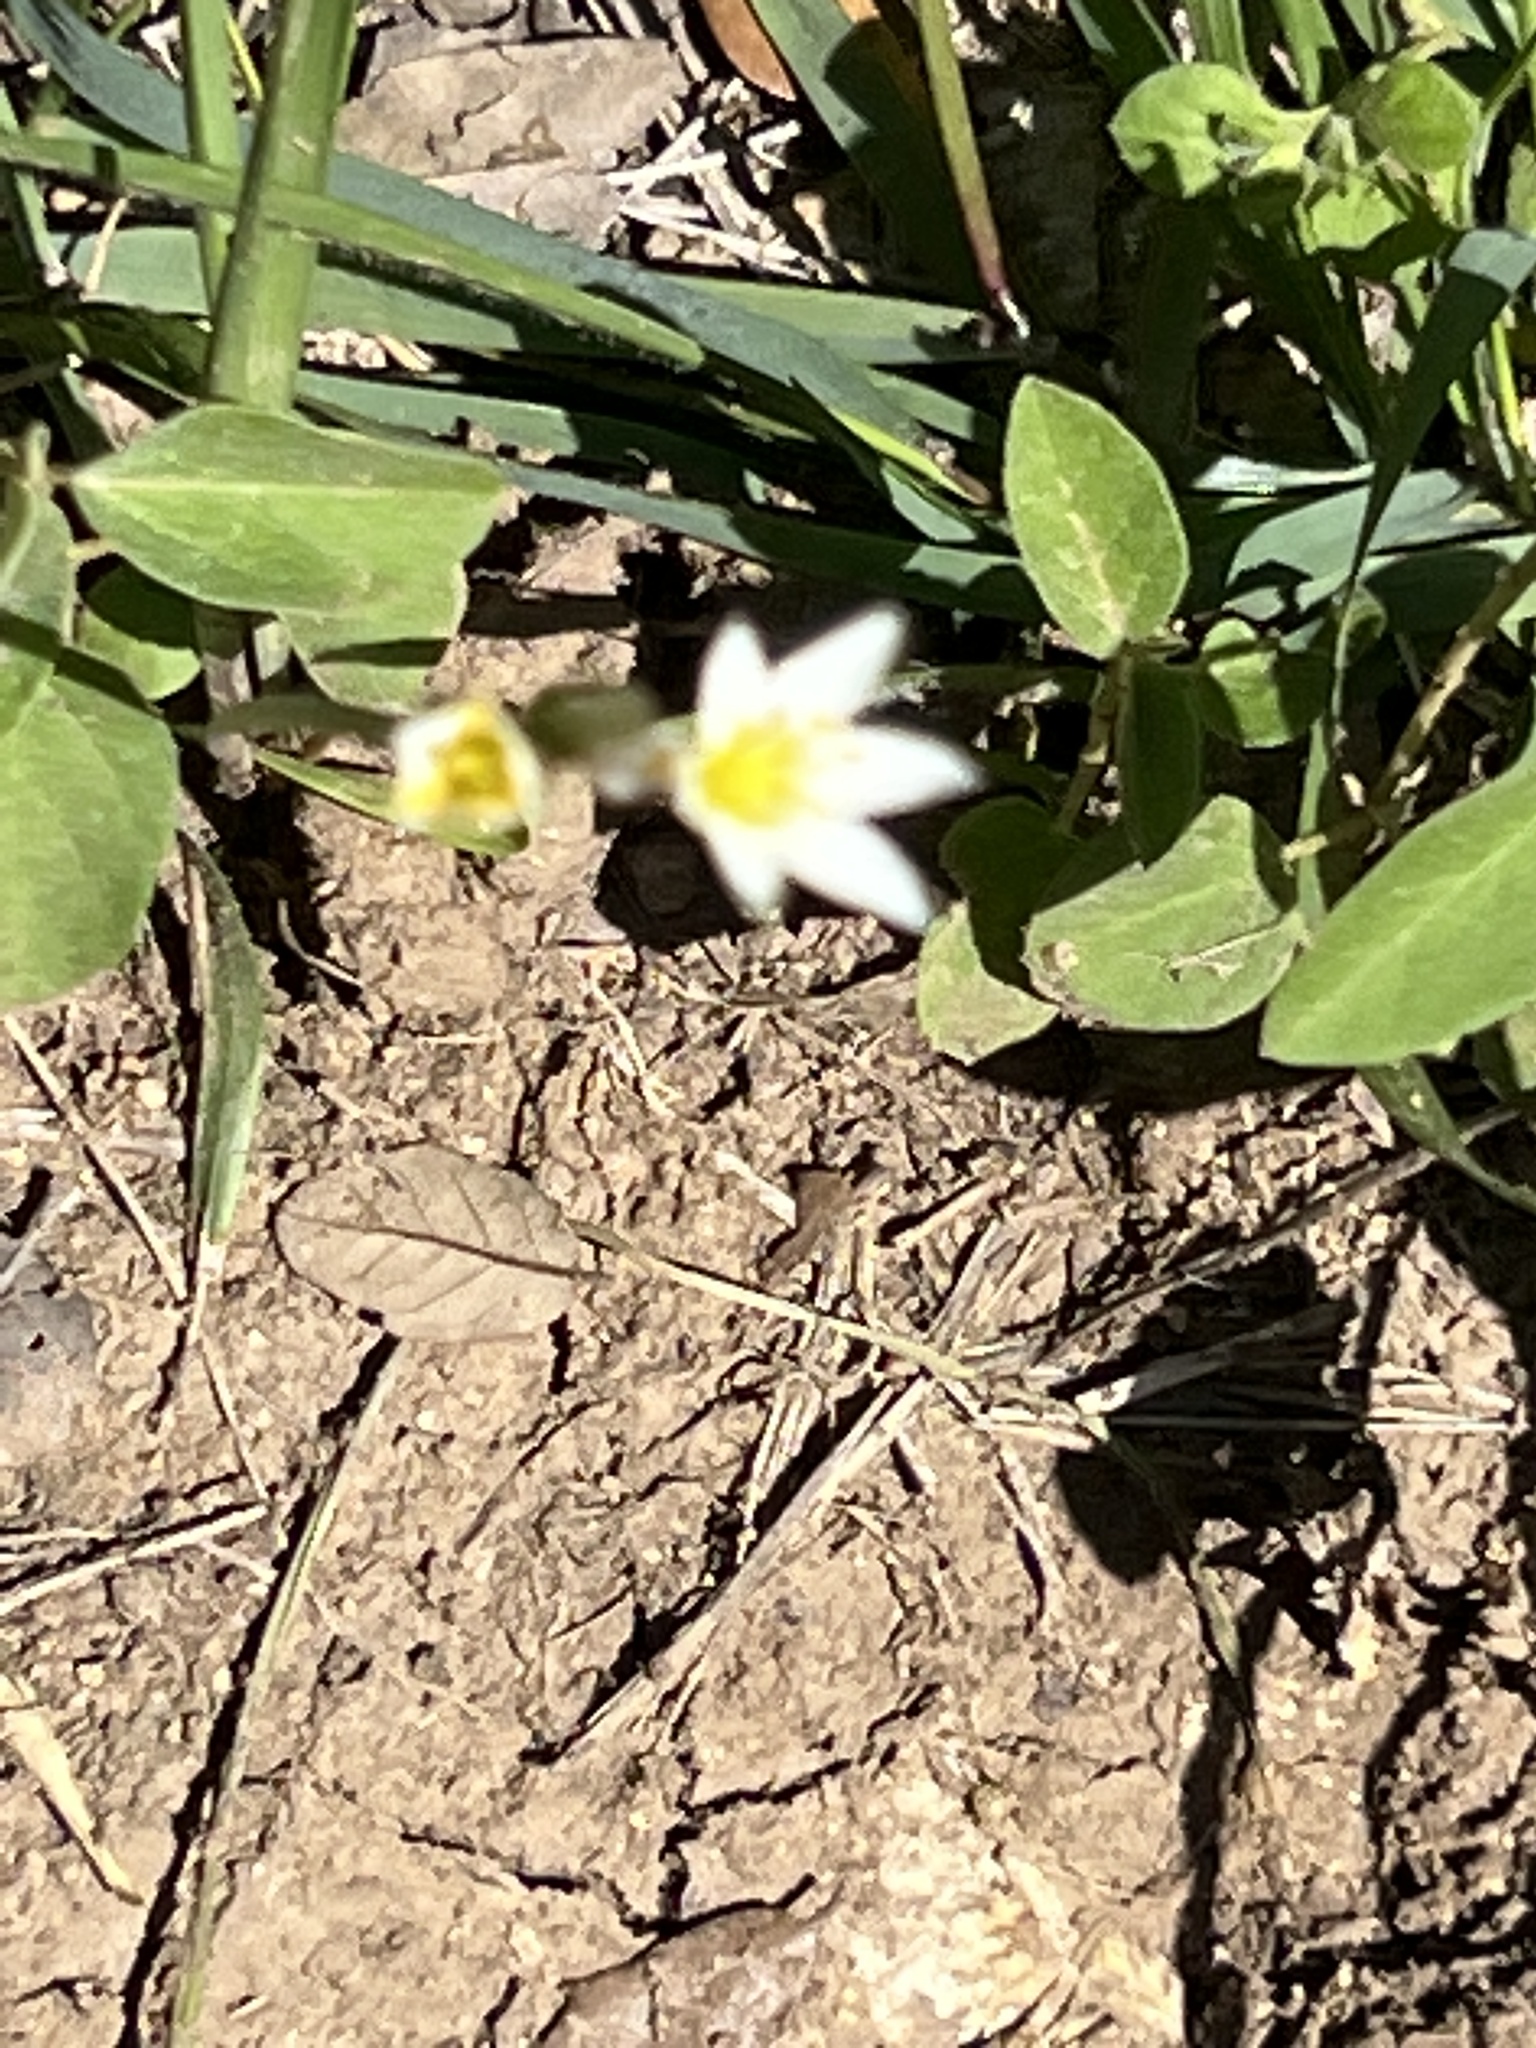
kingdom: Plantae
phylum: Tracheophyta
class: Liliopsida
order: Asparagales
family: Amaryllidaceae
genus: Nothoscordum
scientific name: Nothoscordum bivalve
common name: Crow-poison
